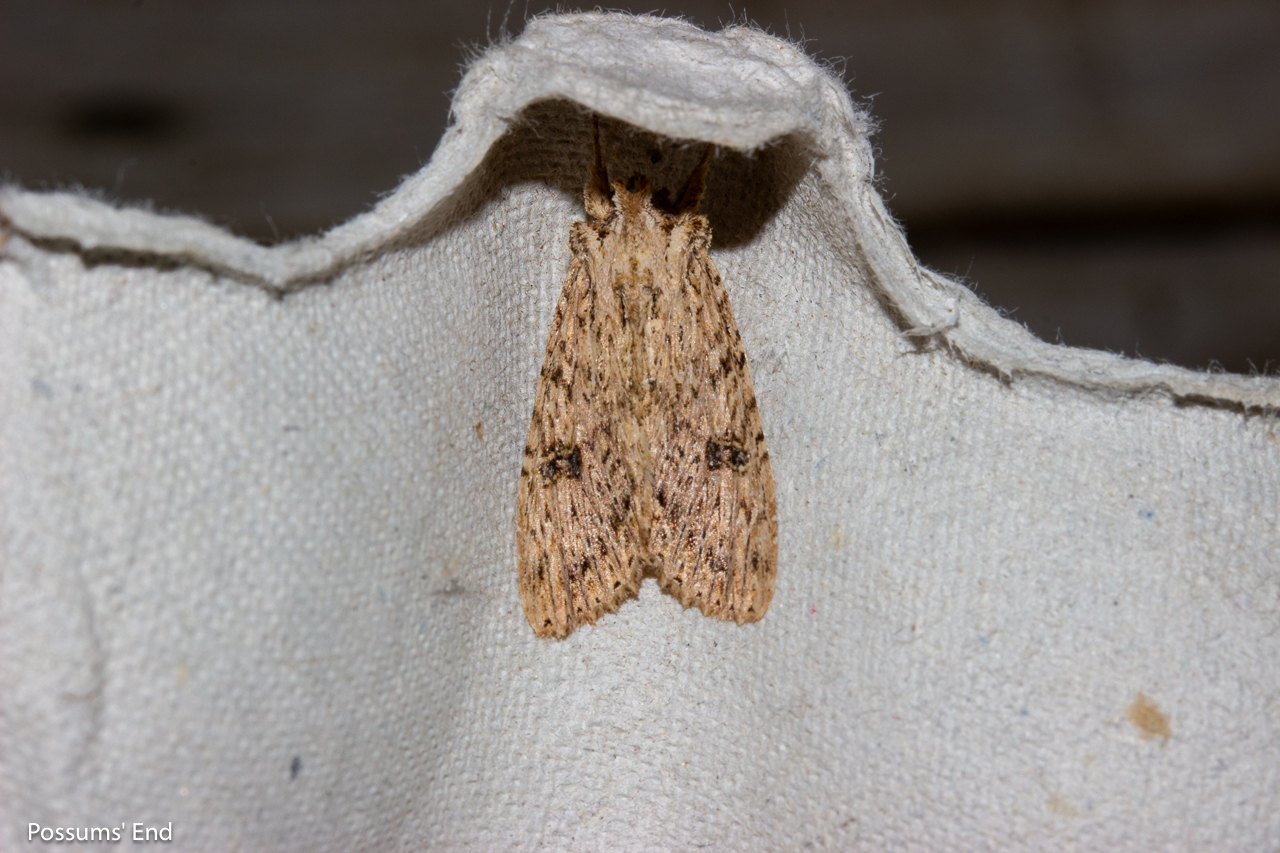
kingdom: Animalia
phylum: Arthropoda
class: Insecta
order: Lepidoptera
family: Noctuidae
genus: Meterana
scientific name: Meterana pansicolor
